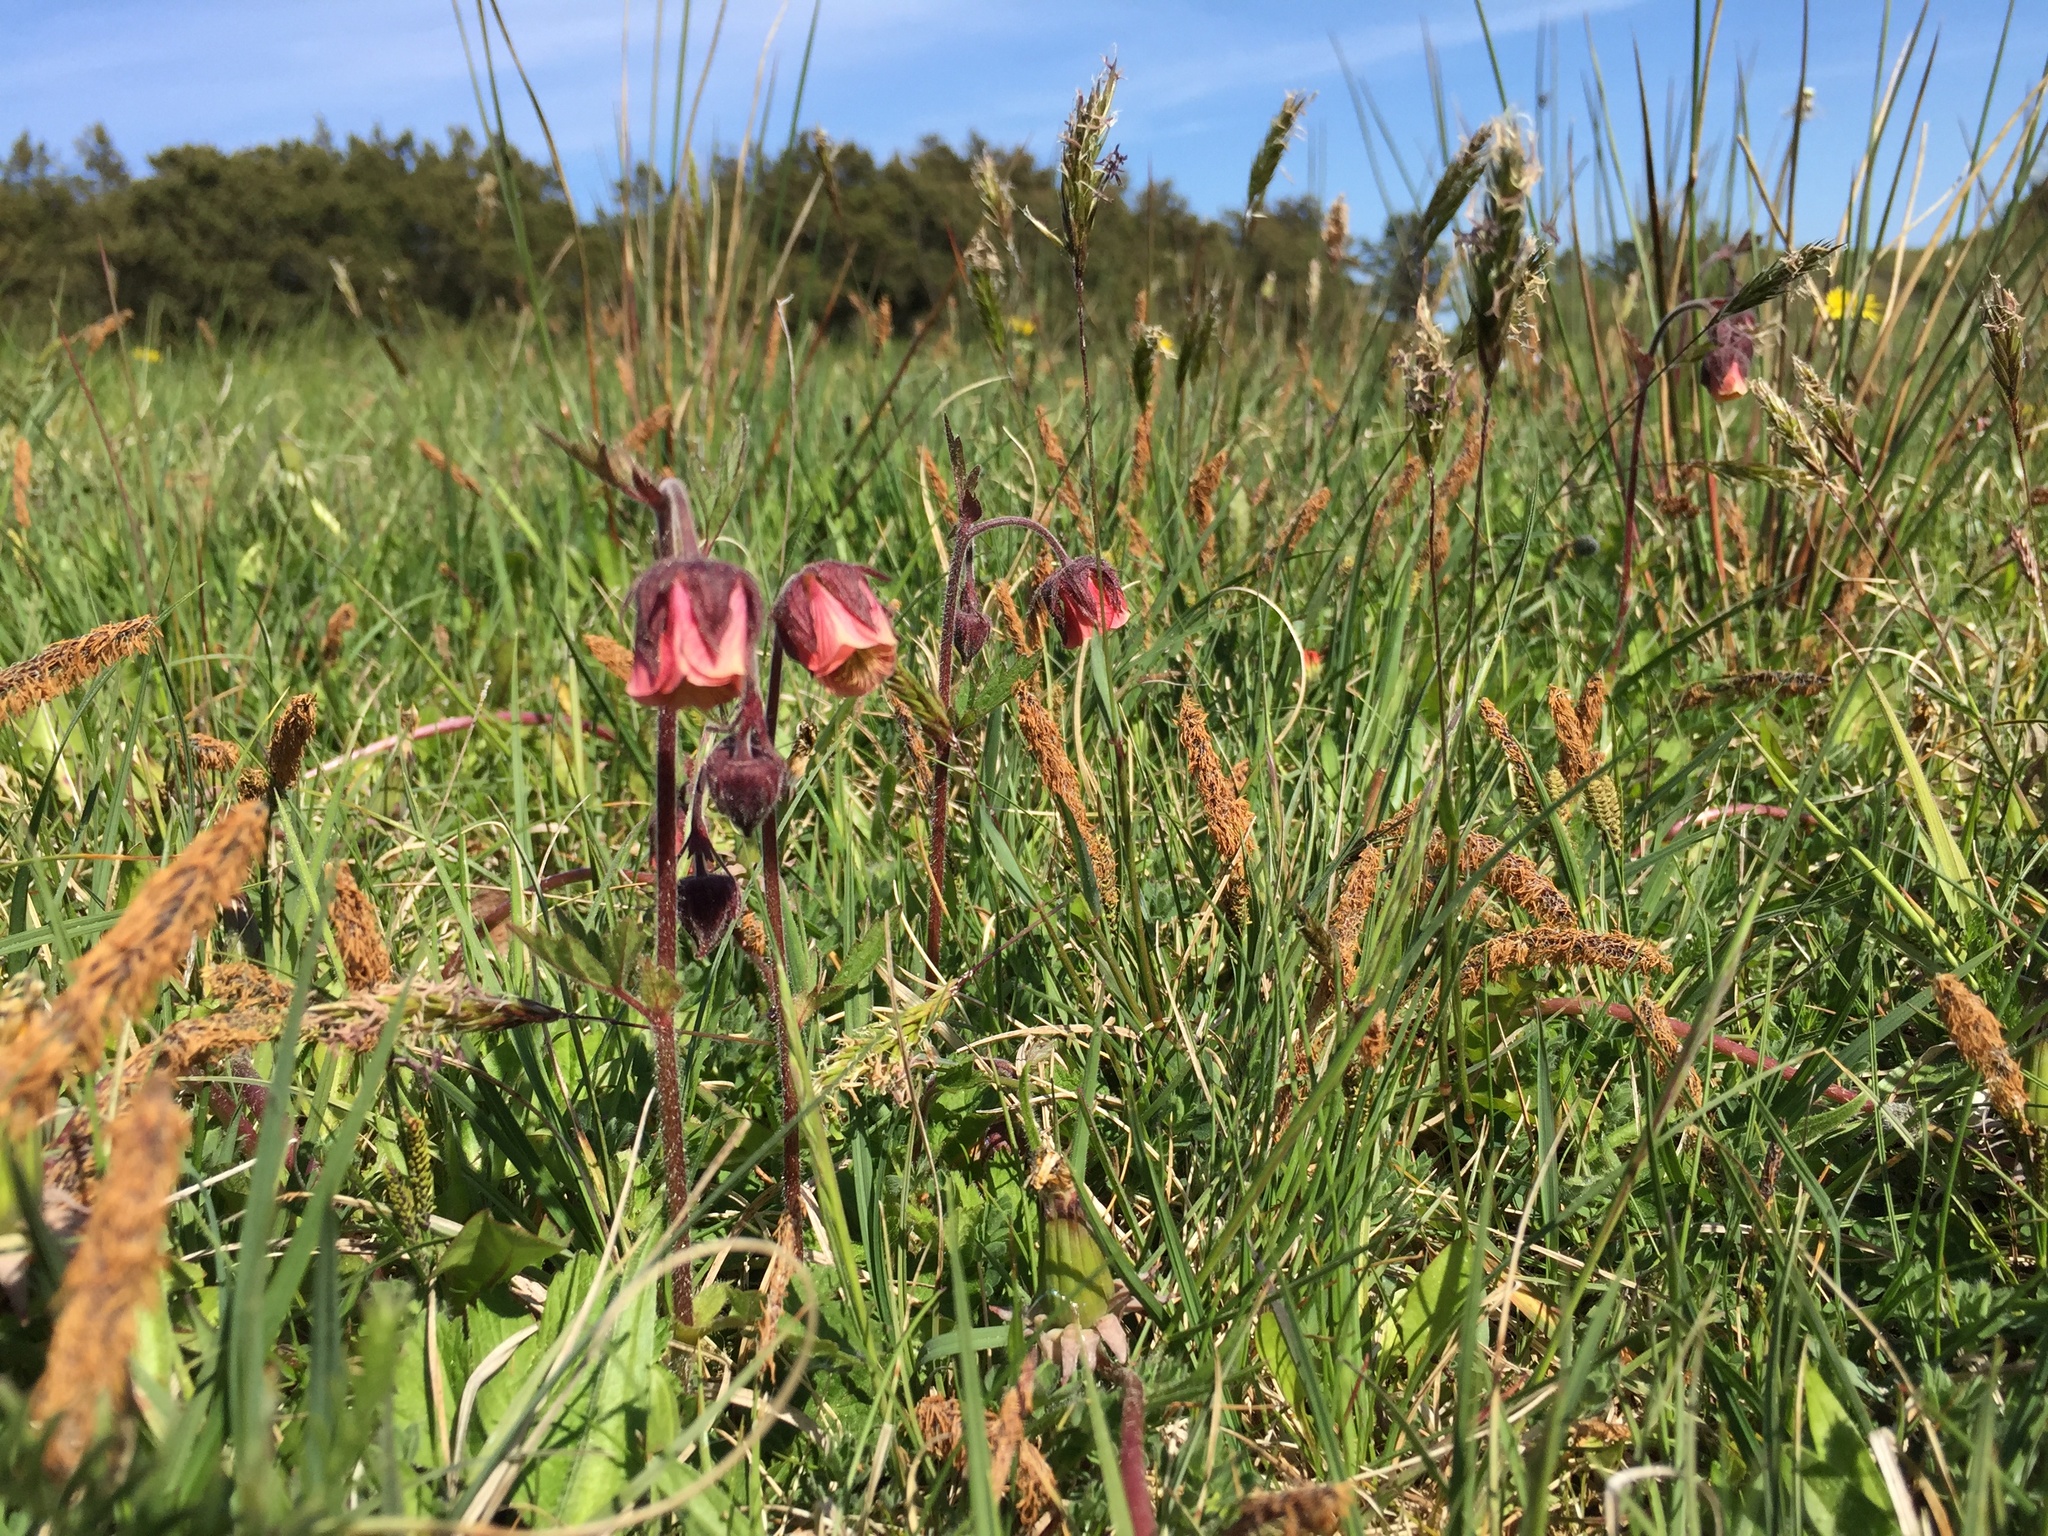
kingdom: Plantae
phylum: Tracheophyta
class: Magnoliopsida
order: Rosales
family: Rosaceae
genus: Geum
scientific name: Geum rivale
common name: Water avens
